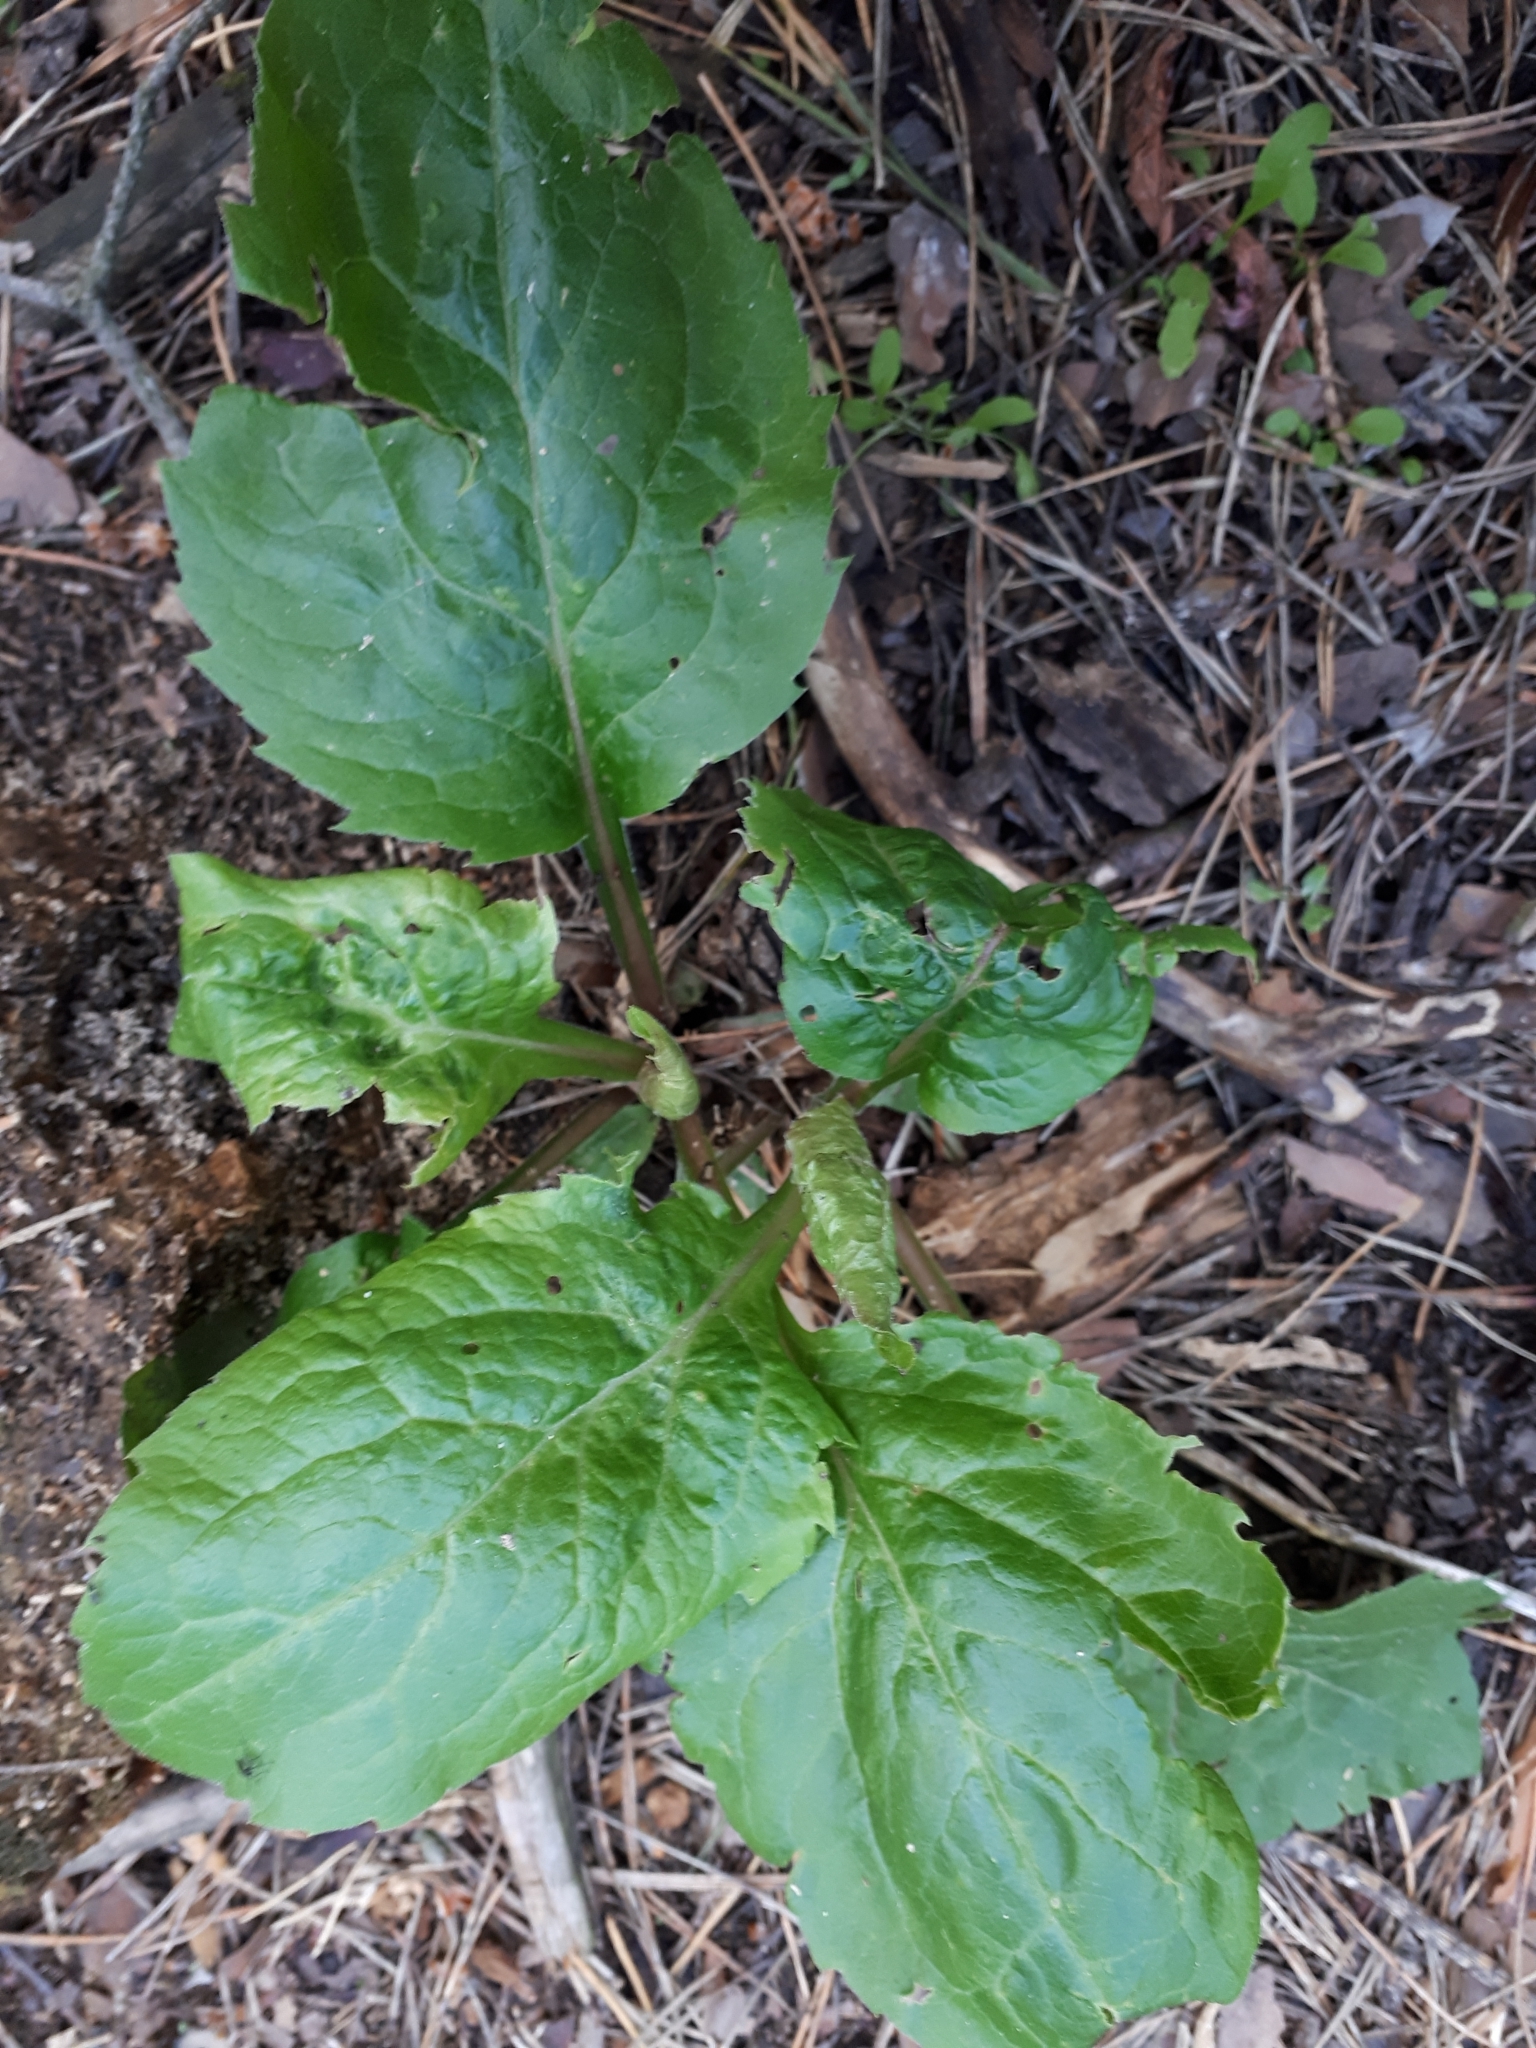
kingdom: Plantae
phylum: Tracheophyta
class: Magnoliopsida
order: Asterales
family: Asteraceae
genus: Solidago
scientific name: Solidago virgaurea
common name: Goldenrod
